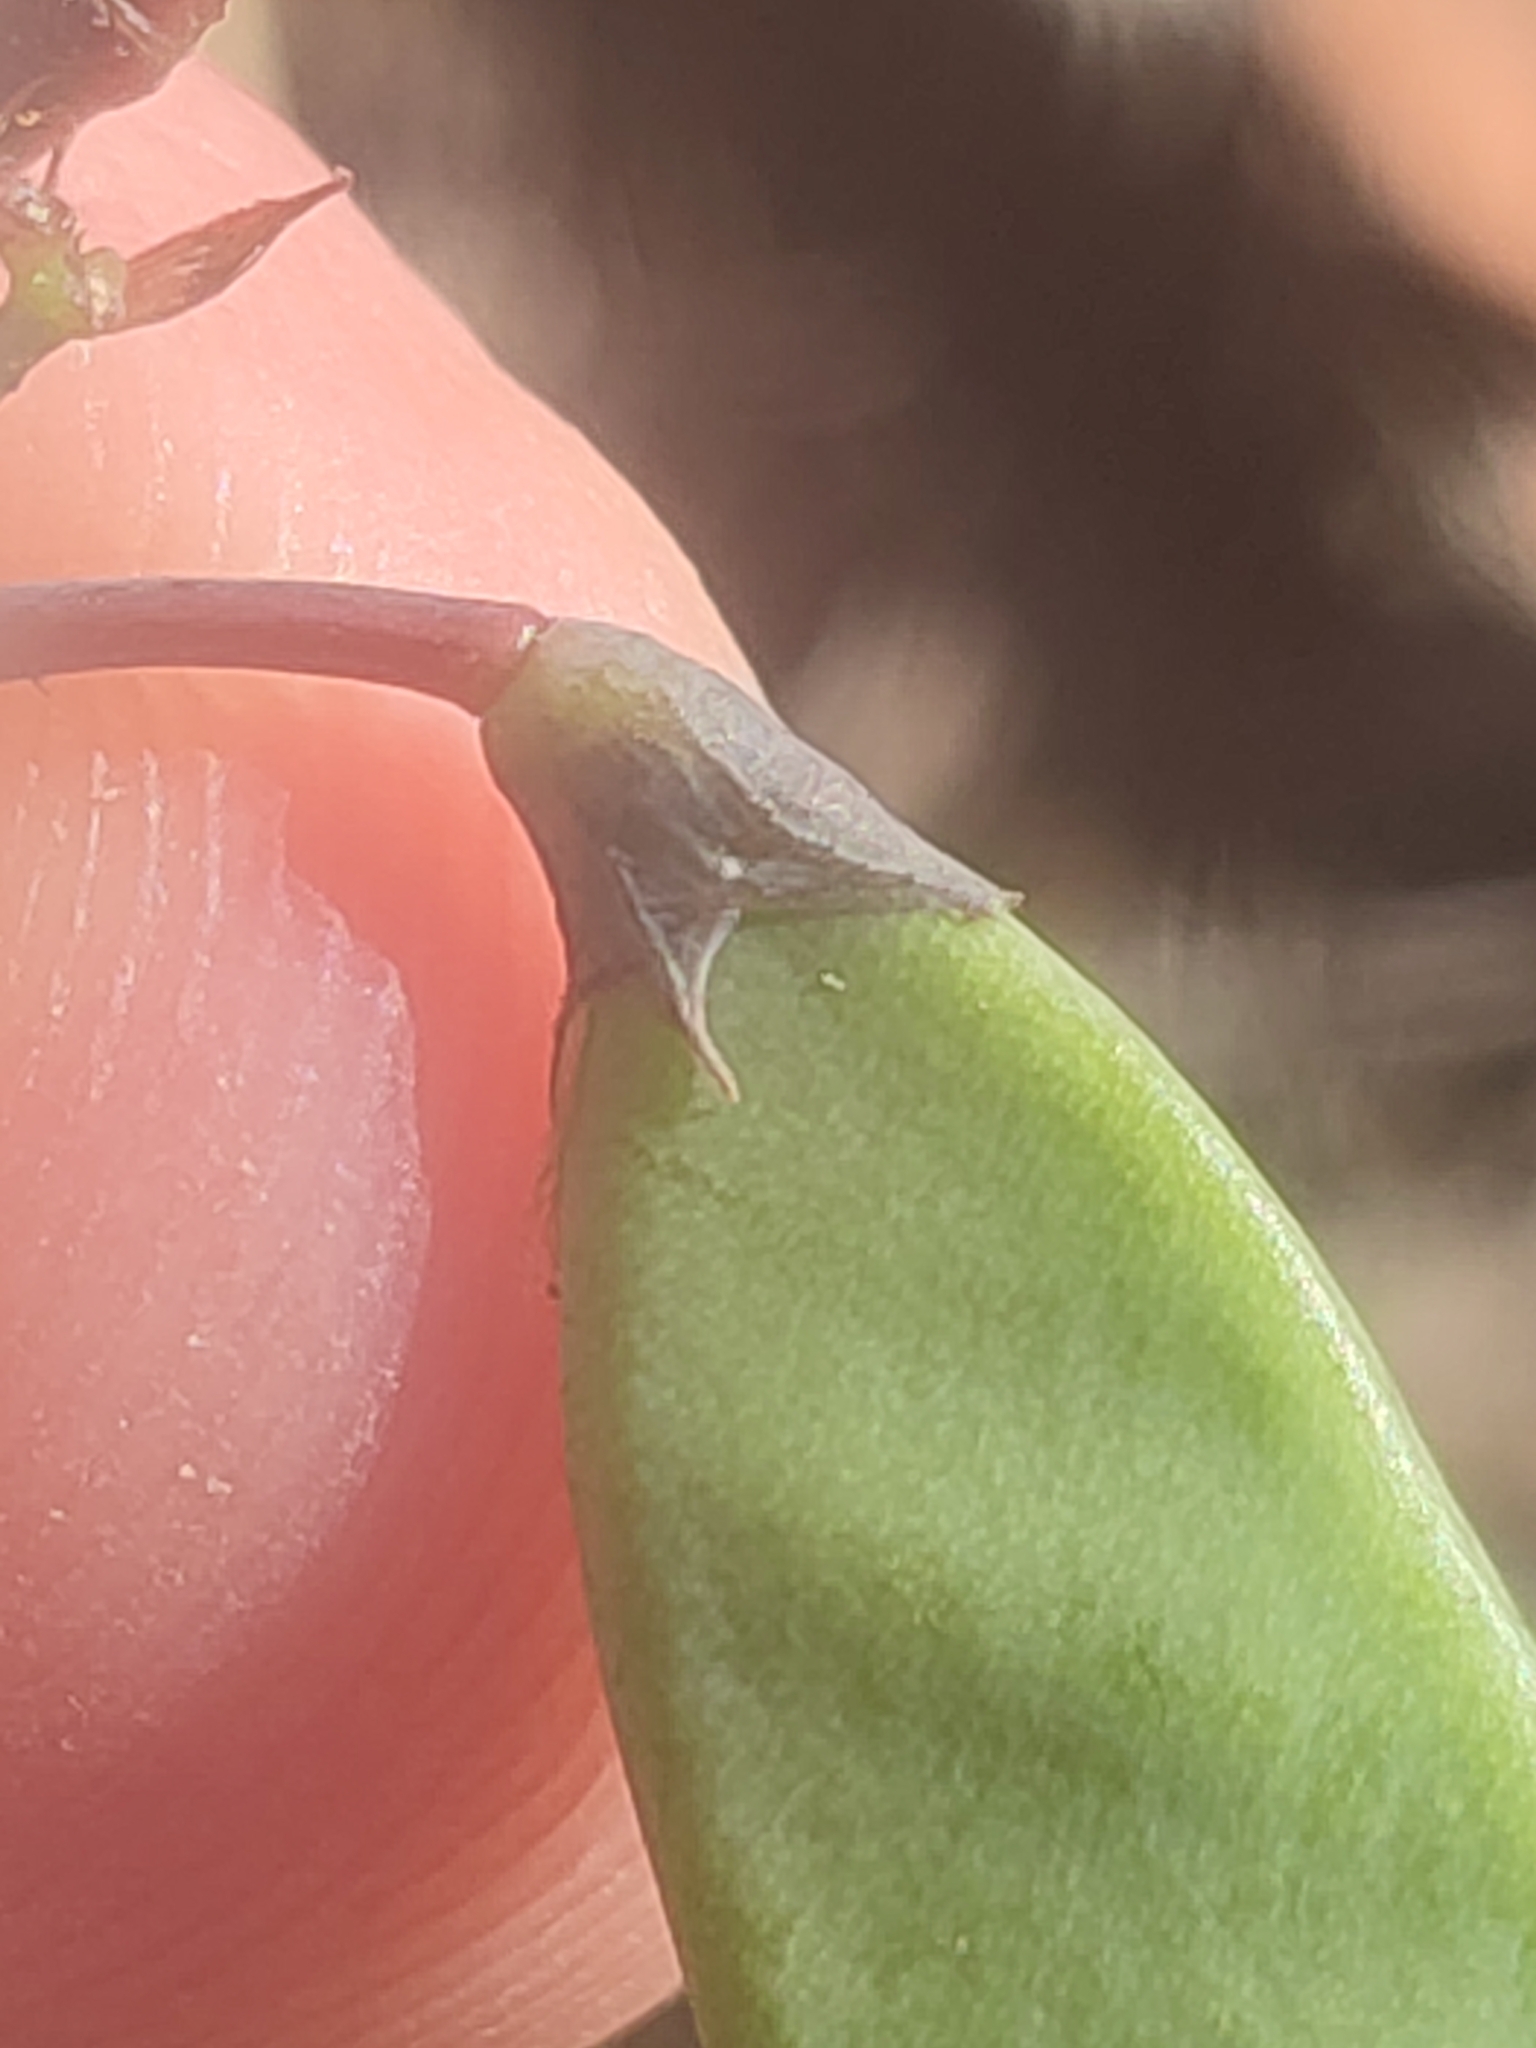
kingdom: Plantae
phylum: Tracheophyta
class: Magnoliopsida
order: Fabales
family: Fabaceae
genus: Hardenbergia
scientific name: Hardenbergia violacea
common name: Coral-pea
